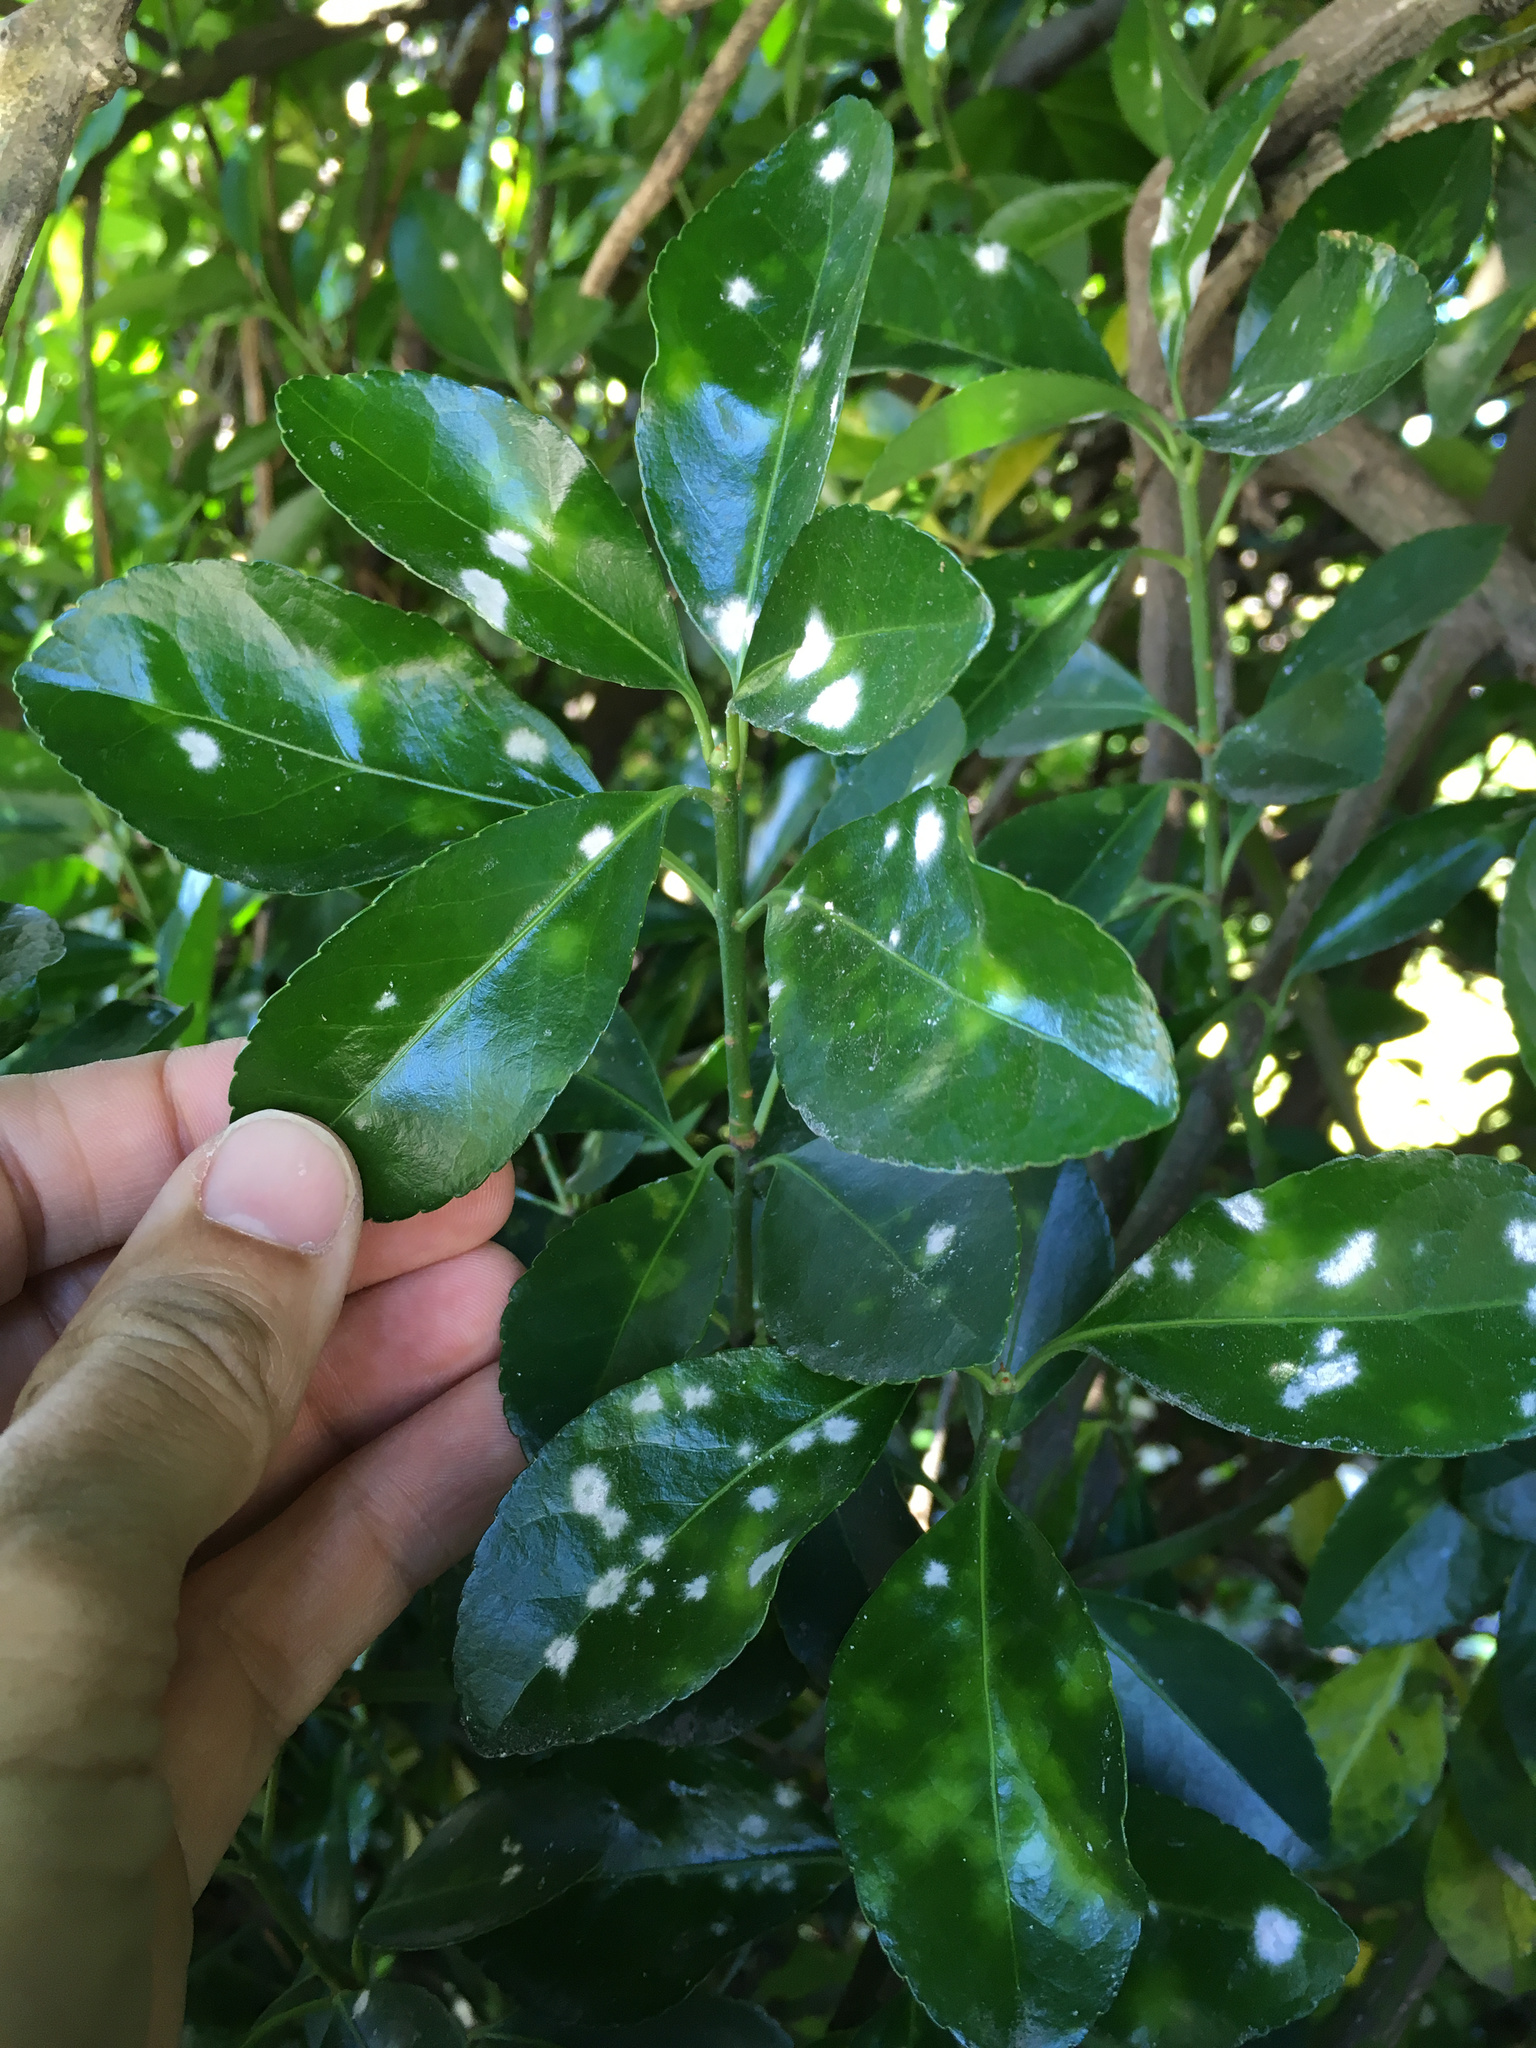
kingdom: Fungi
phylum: Ascomycota
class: Leotiomycetes
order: Helotiales
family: Erysiphaceae
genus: Erysiphe
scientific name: Erysiphe euonymicola
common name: Spindletree mildew
